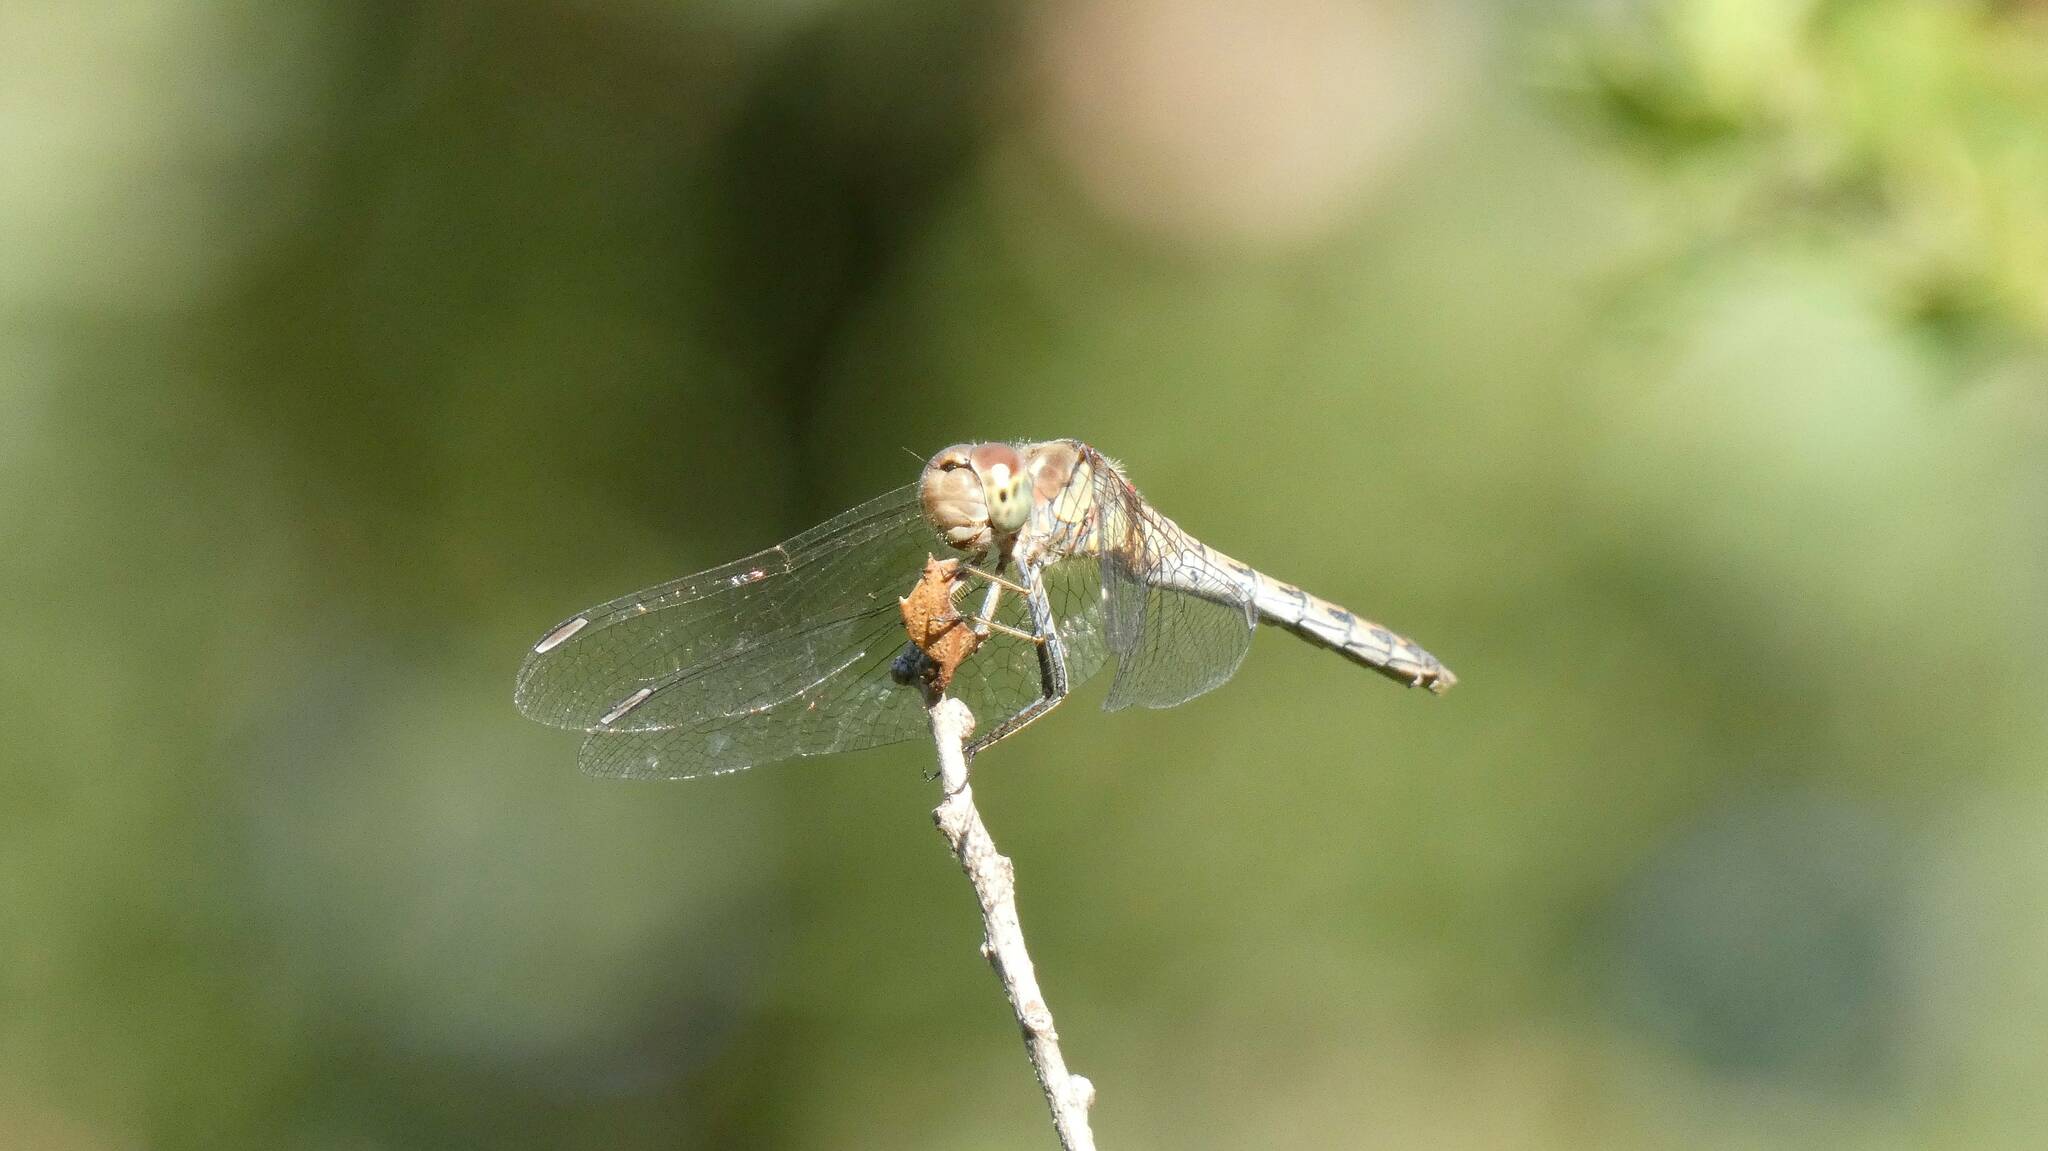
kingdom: Animalia
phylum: Arthropoda
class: Insecta
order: Odonata
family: Libellulidae
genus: Sympetrum
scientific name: Sympetrum striolatum
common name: Common darter
